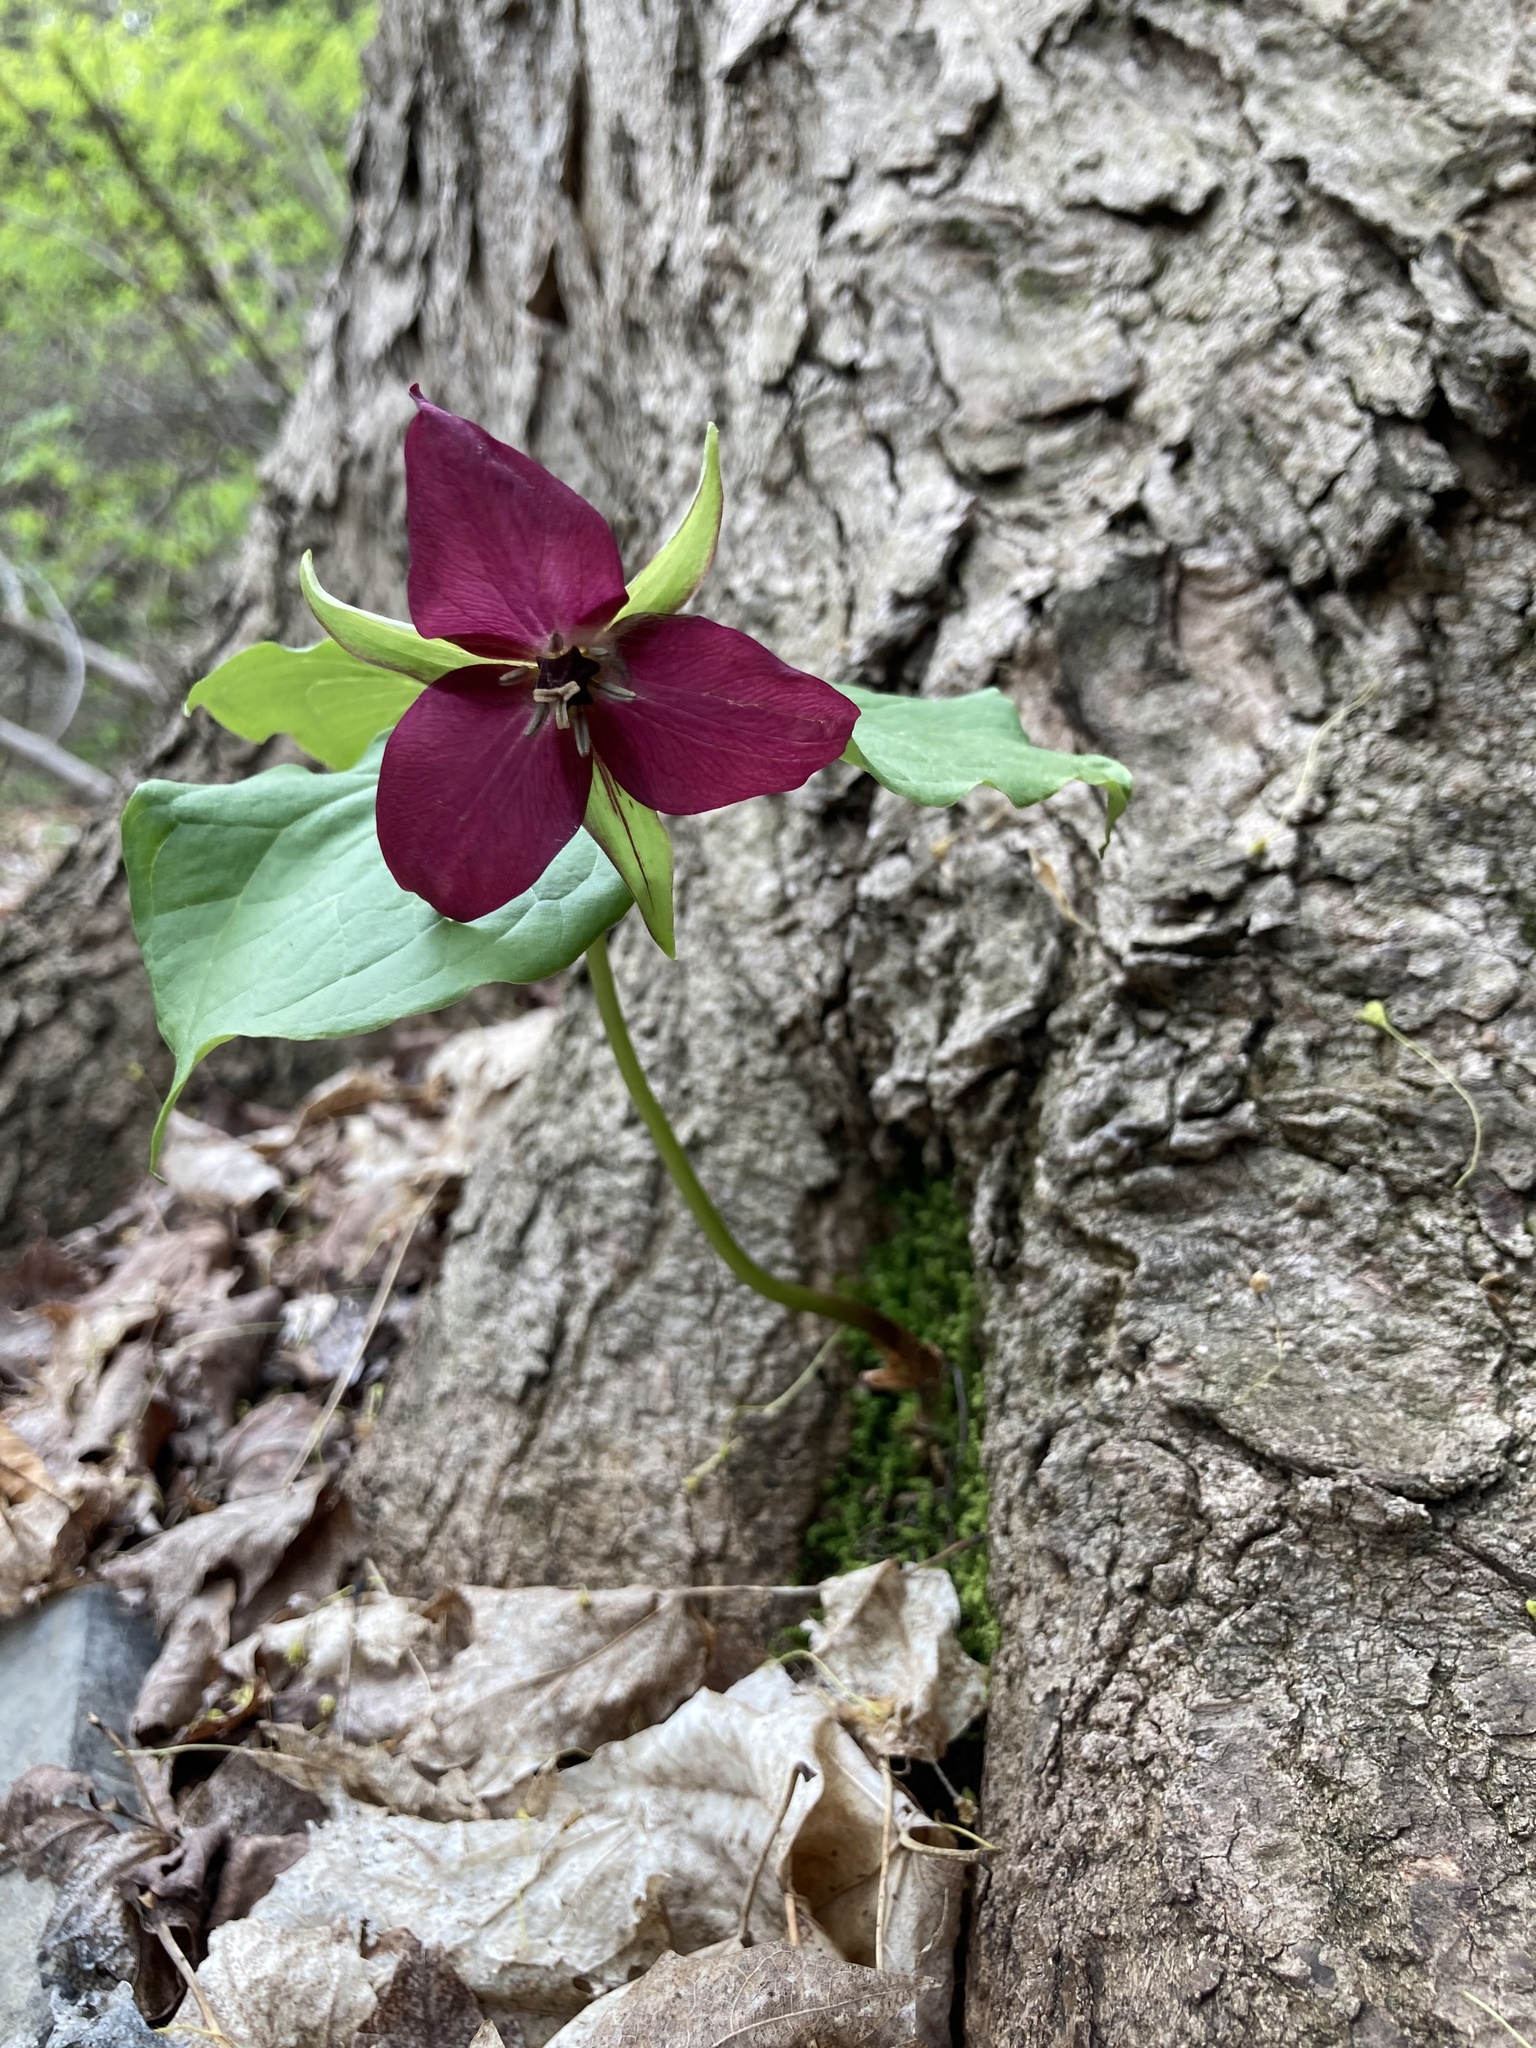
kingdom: Plantae
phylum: Tracheophyta
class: Liliopsida
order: Liliales
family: Melanthiaceae
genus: Trillium
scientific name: Trillium erectum
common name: Purple trillium
